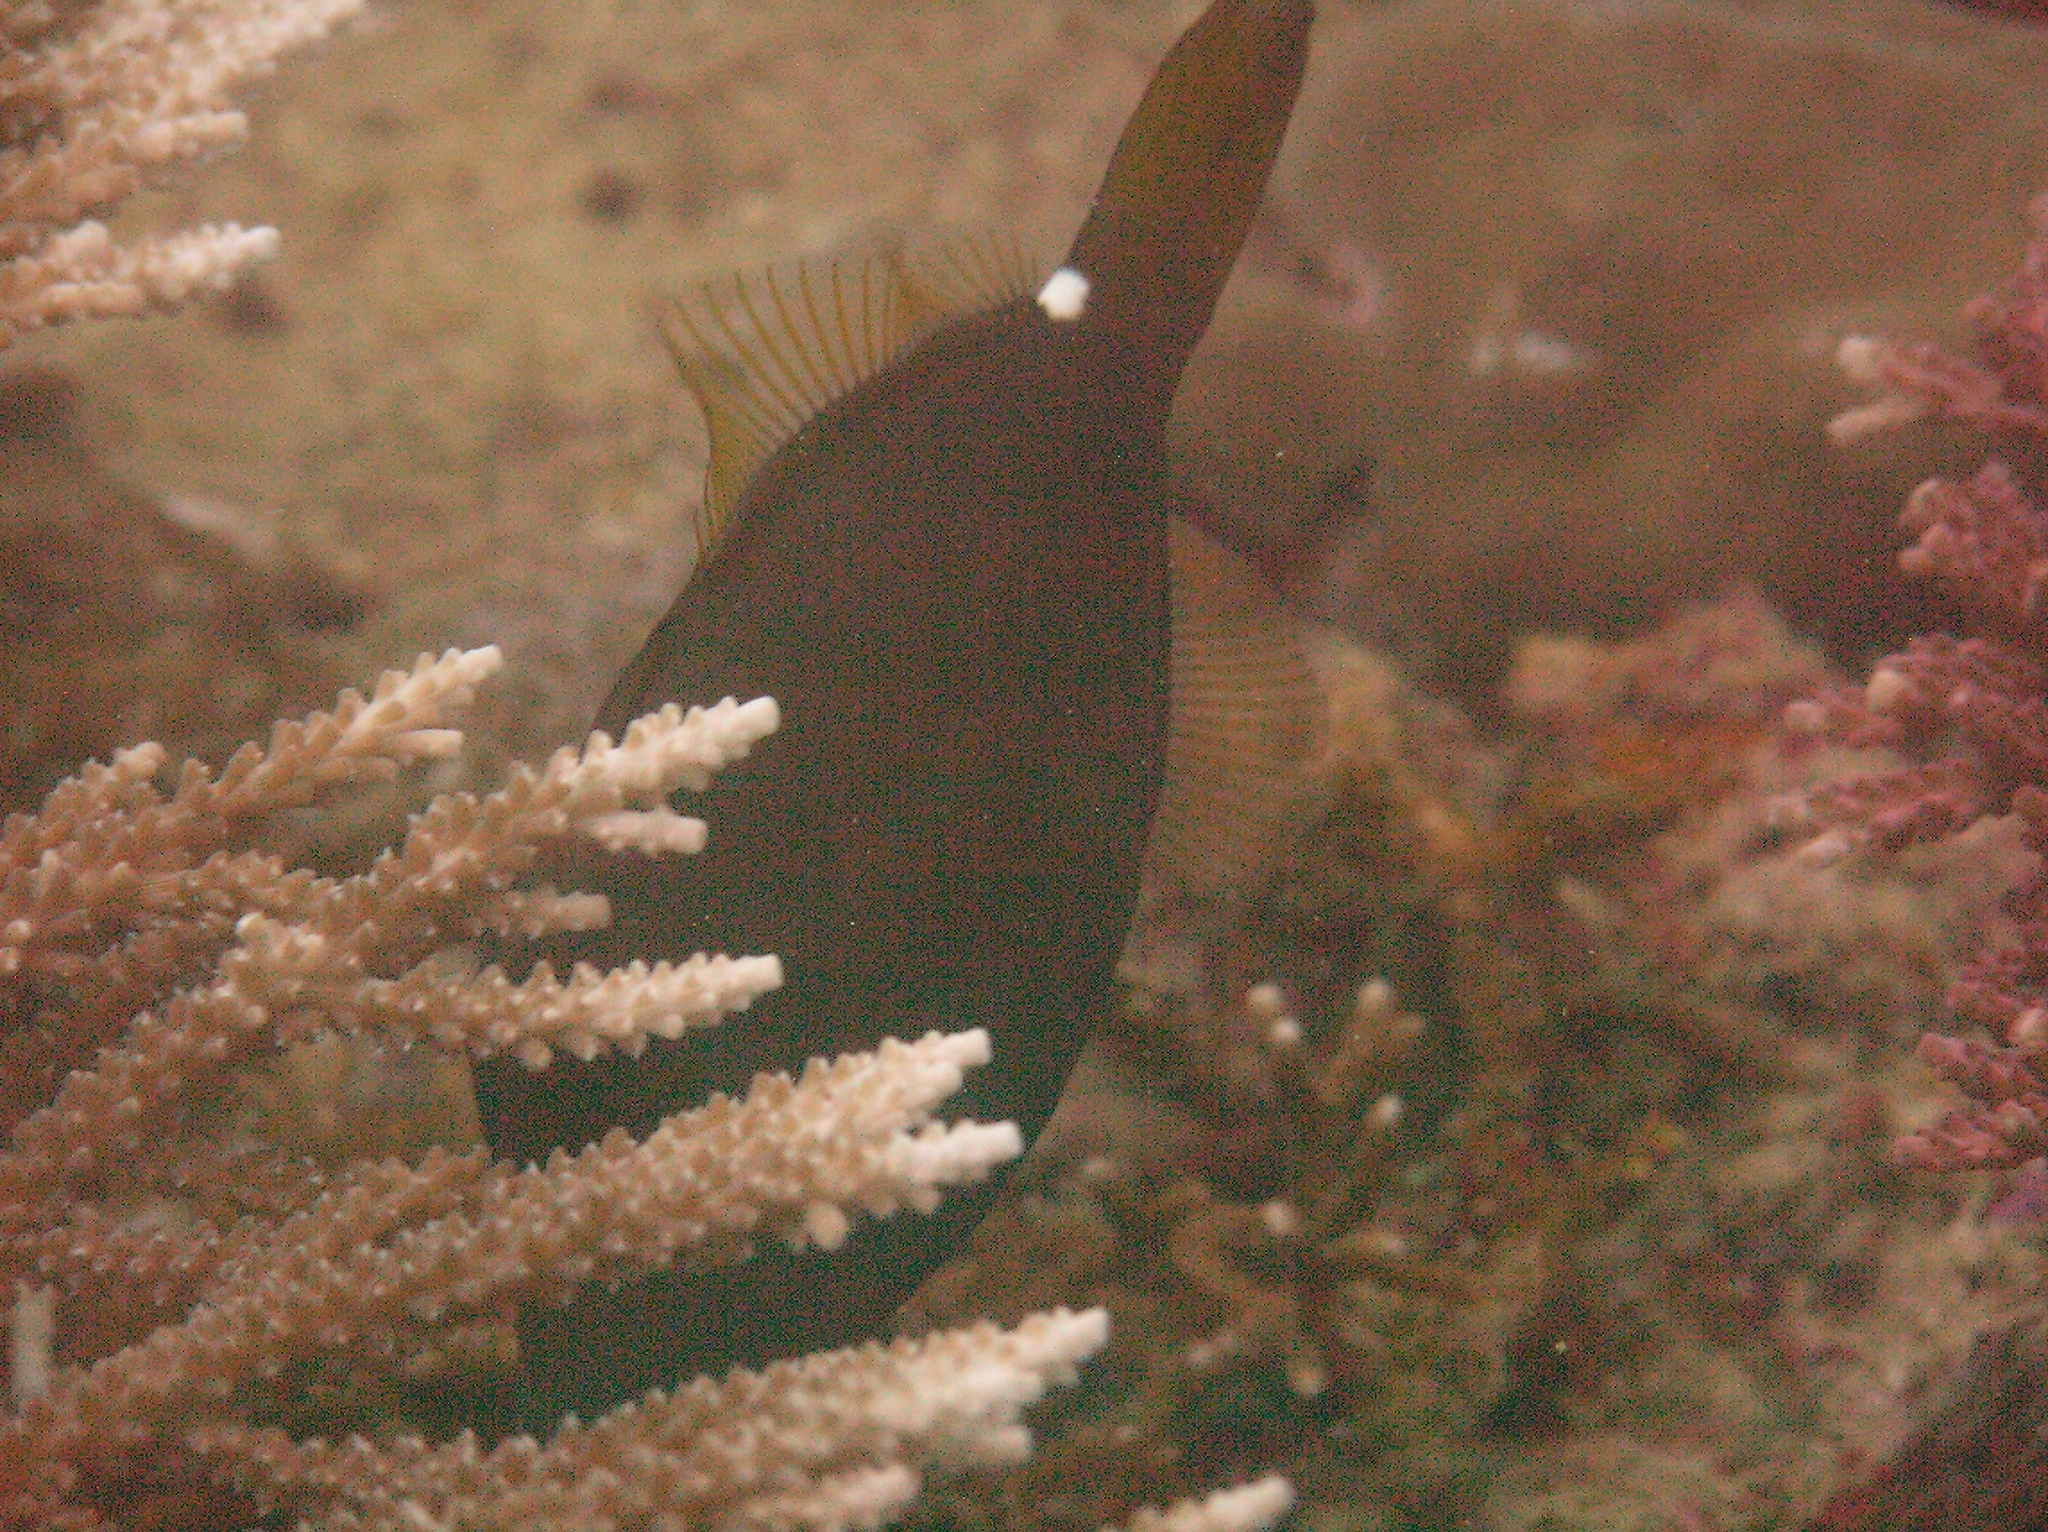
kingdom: Animalia
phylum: Chordata
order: Tetraodontiformes
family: Monacanthidae
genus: Cantherhines
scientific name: Cantherhines pardalis
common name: Honeycomb filefish
